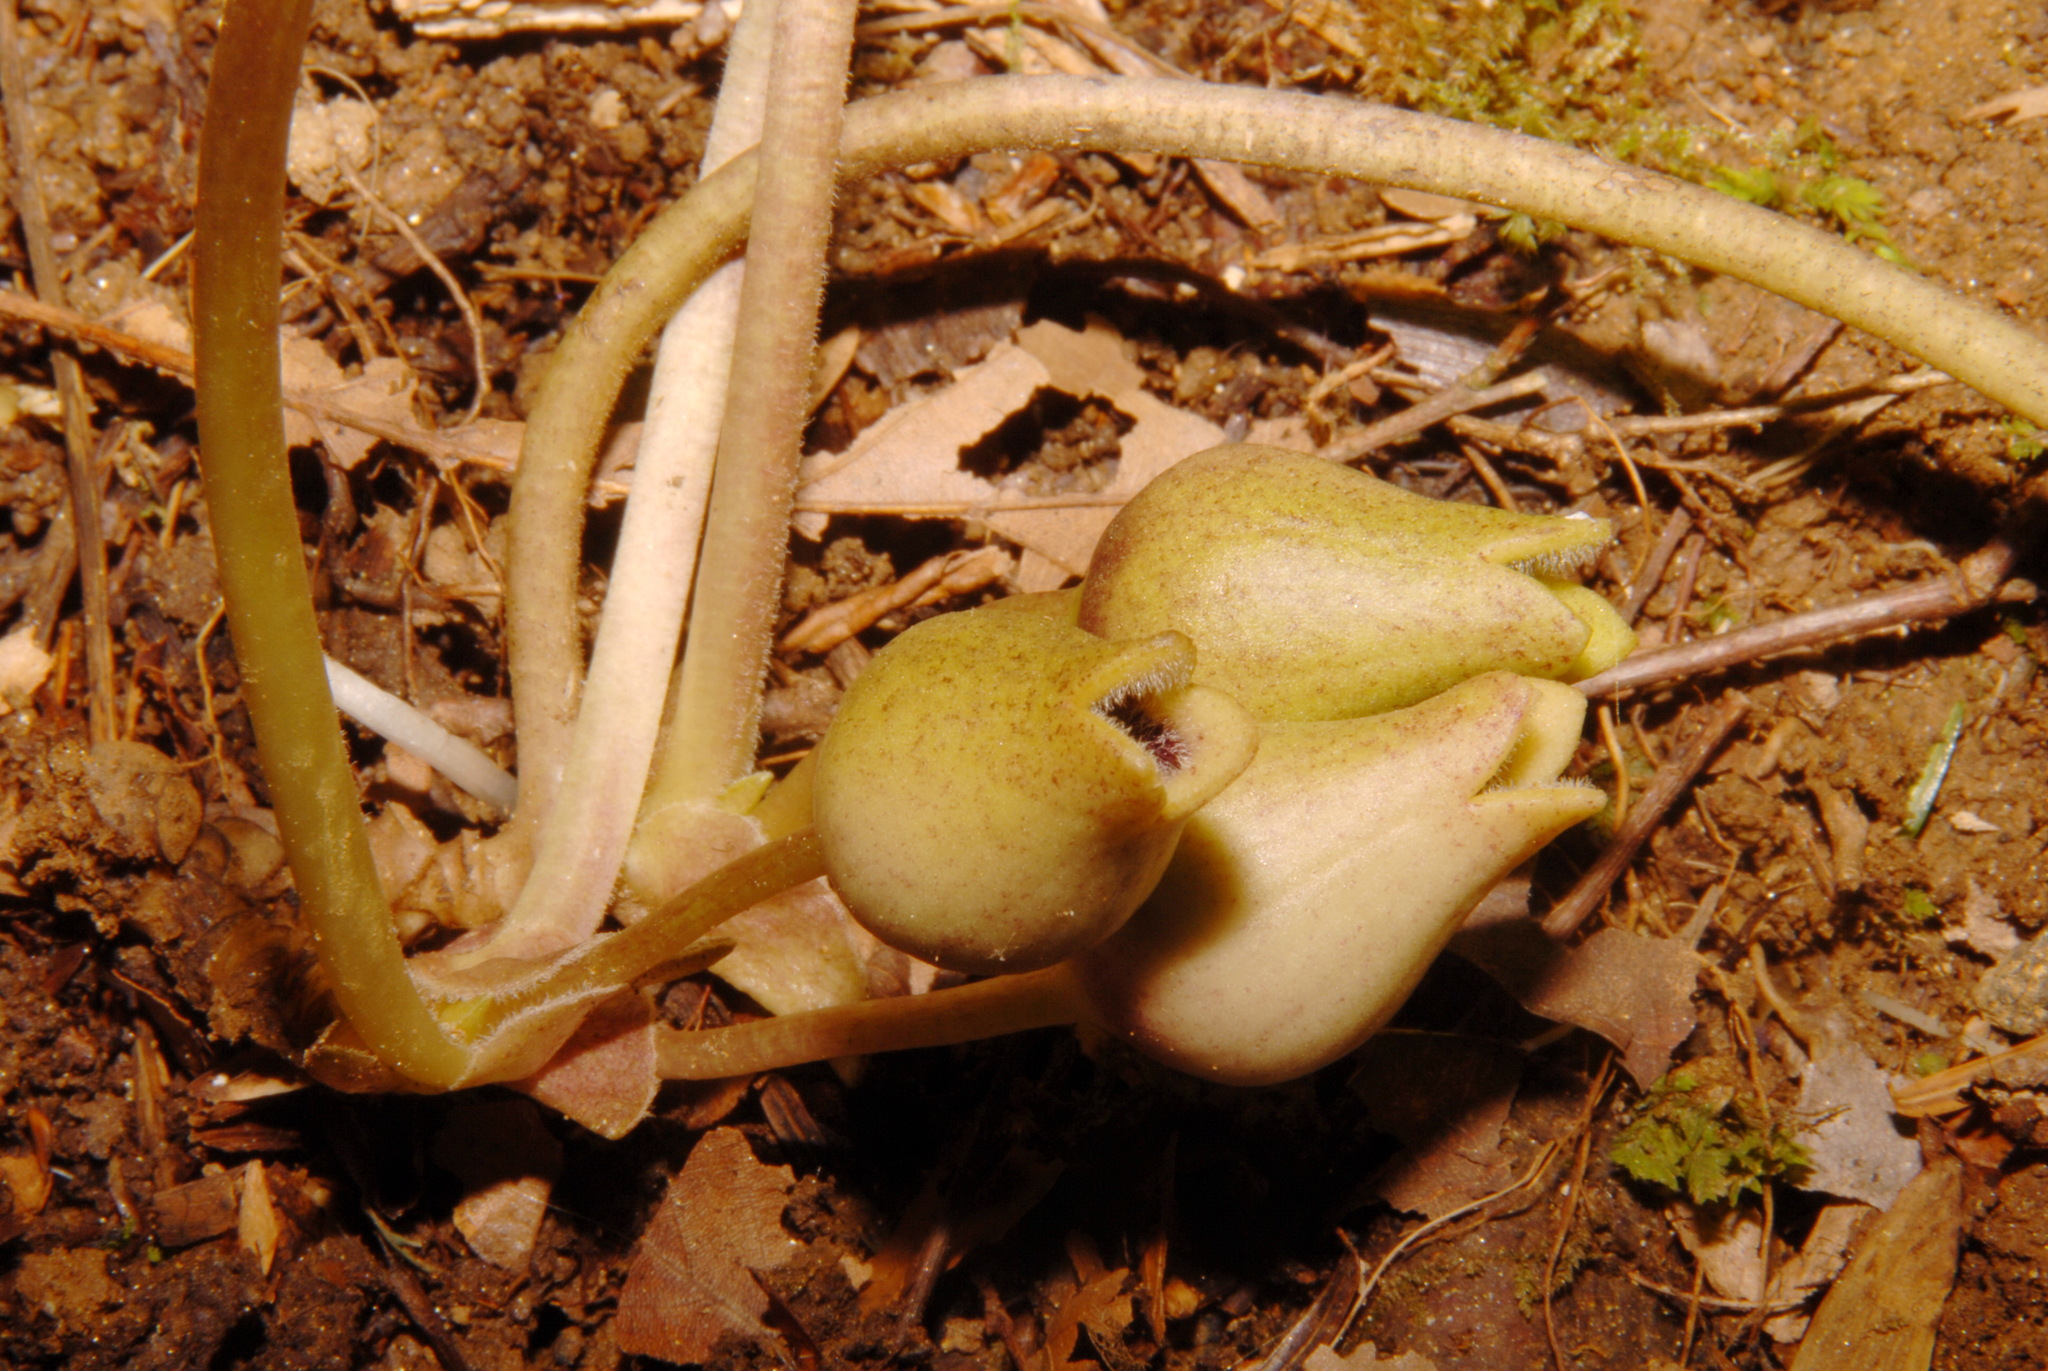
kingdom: Plantae
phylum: Tracheophyta
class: Magnoliopsida
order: Piperales
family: Aristolochiaceae
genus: Hexastylis
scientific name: Hexastylis arifolia
